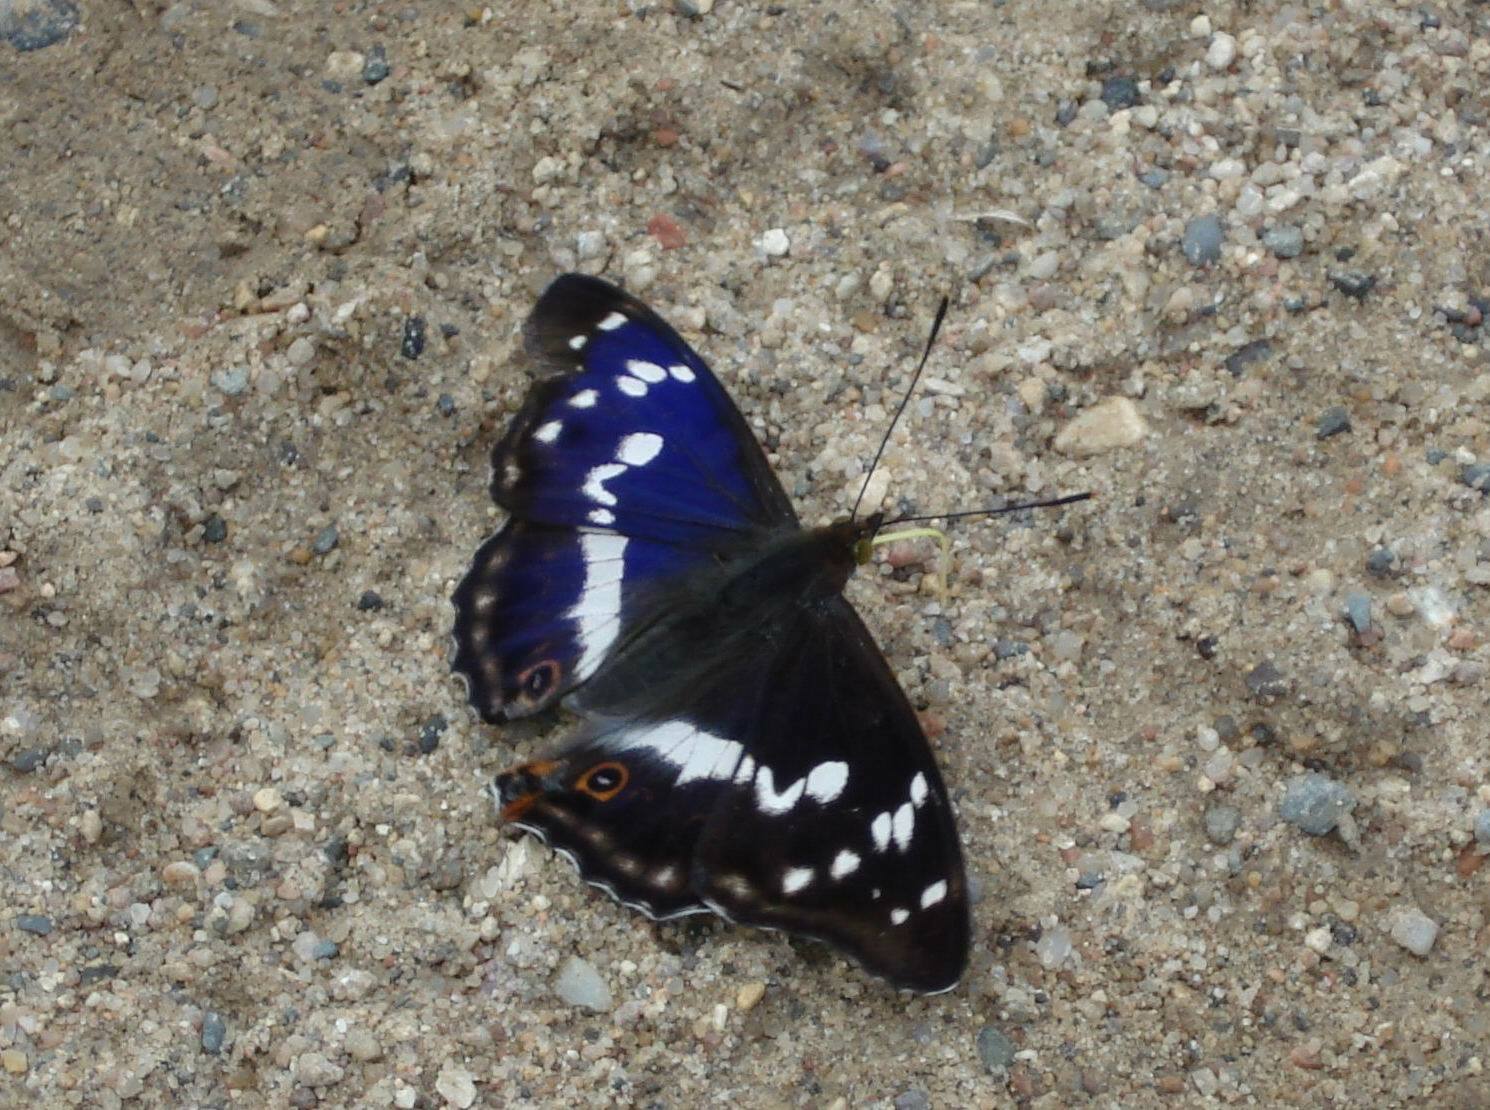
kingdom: Animalia
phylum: Arthropoda
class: Insecta
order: Lepidoptera
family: Nymphalidae
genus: Apatura
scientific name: Apatura iris
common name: Purple emperor
